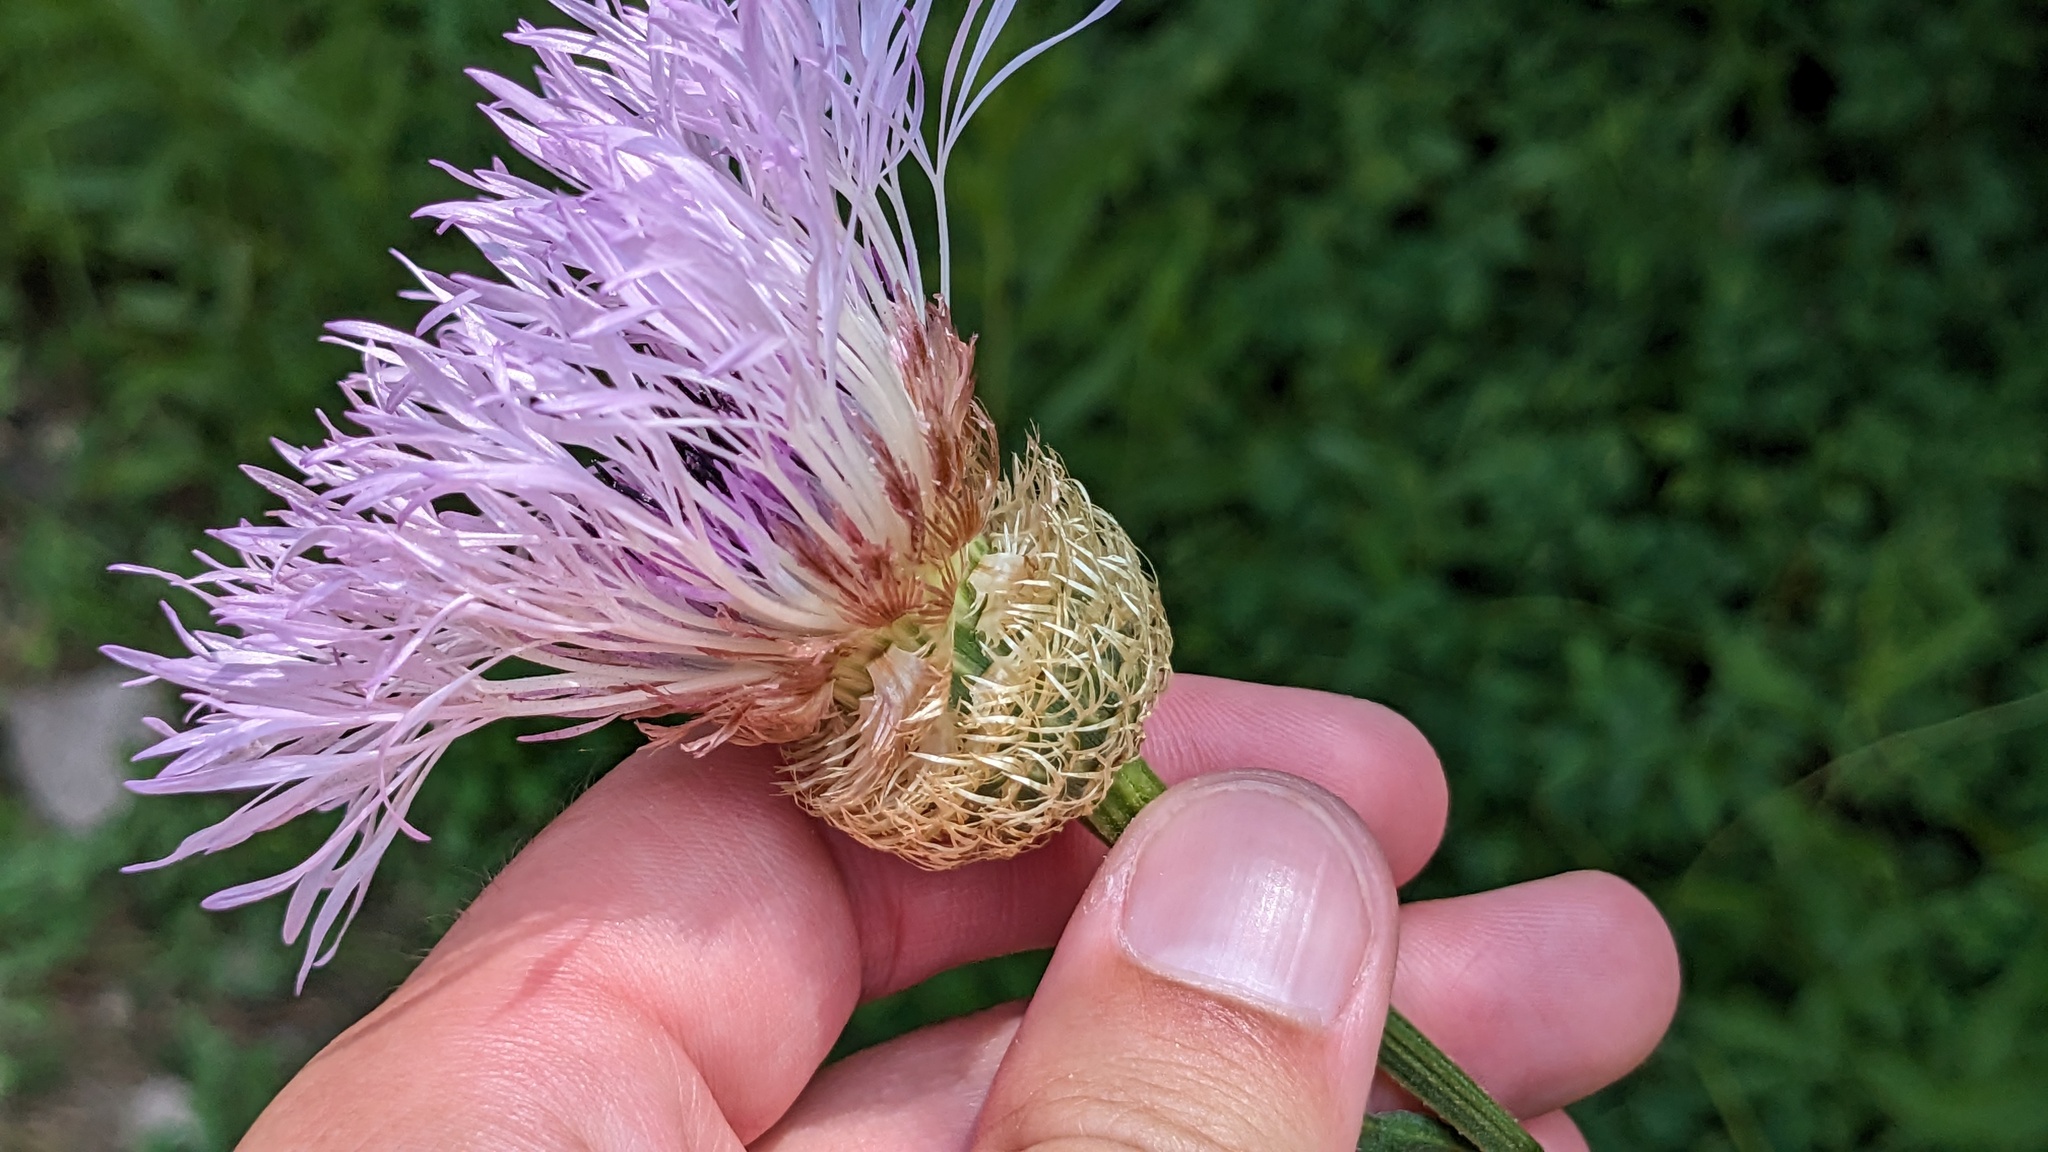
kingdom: Plantae
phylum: Tracheophyta
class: Magnoliopsida
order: Asterales
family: Asteraceae
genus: Plectocephalus
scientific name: Plectocephalus americanus
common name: American basket-flower
